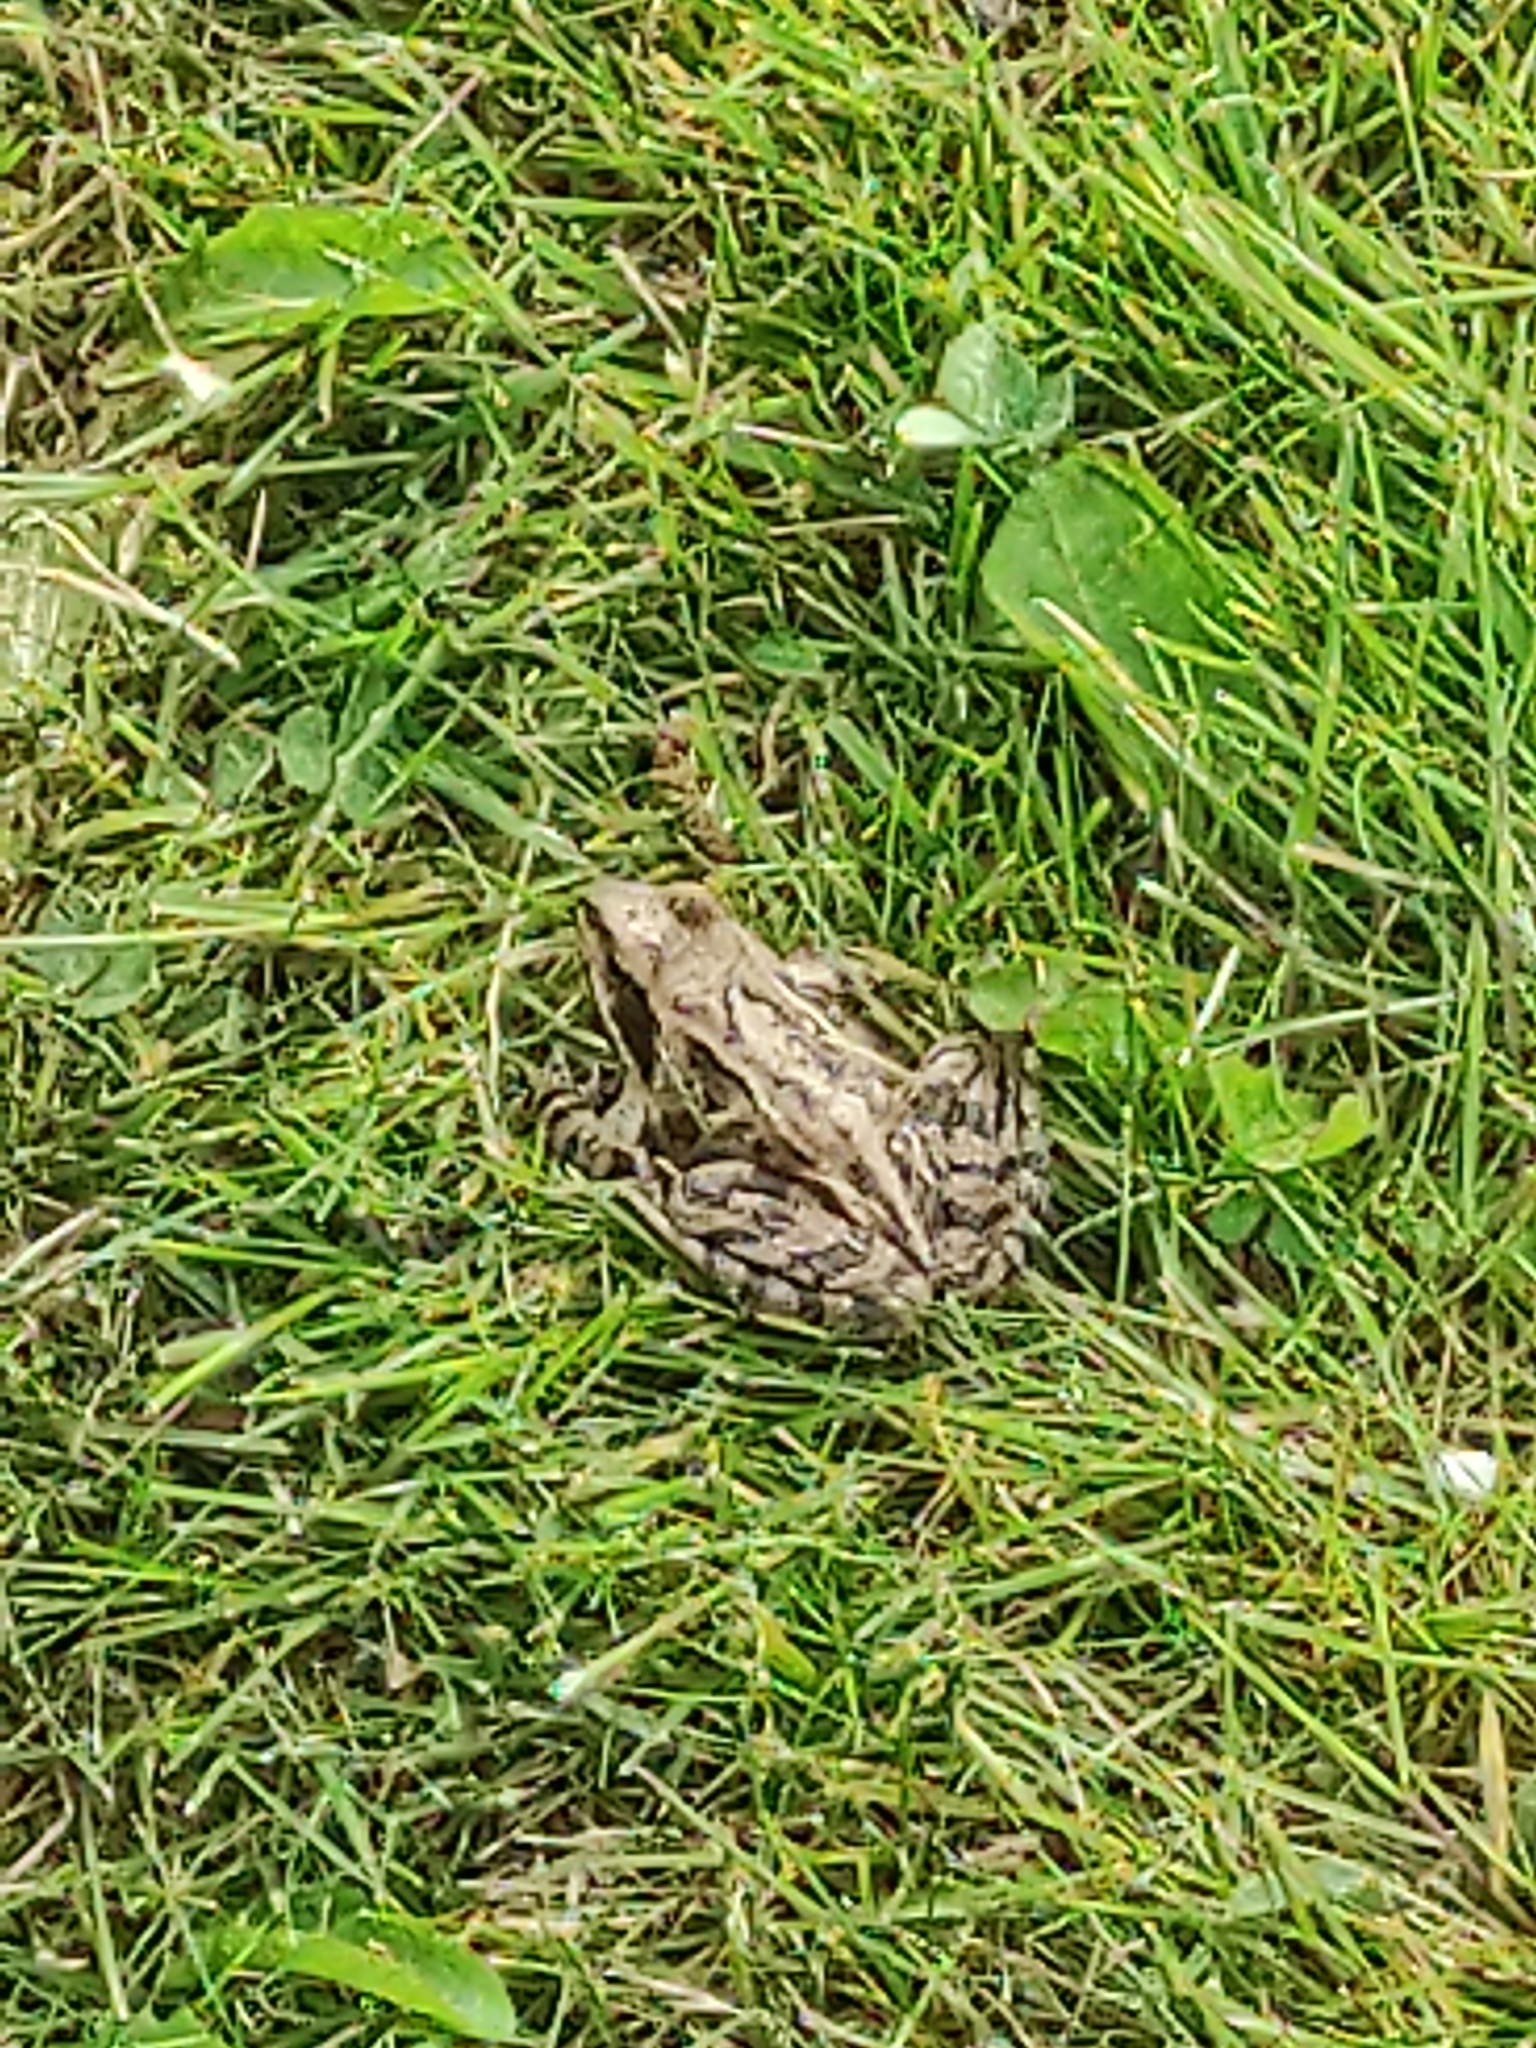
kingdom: Animalia
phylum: Chordata
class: Amphibia
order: Anura
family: Ranidae
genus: Rana
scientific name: Rana temporaria
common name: Common frog
